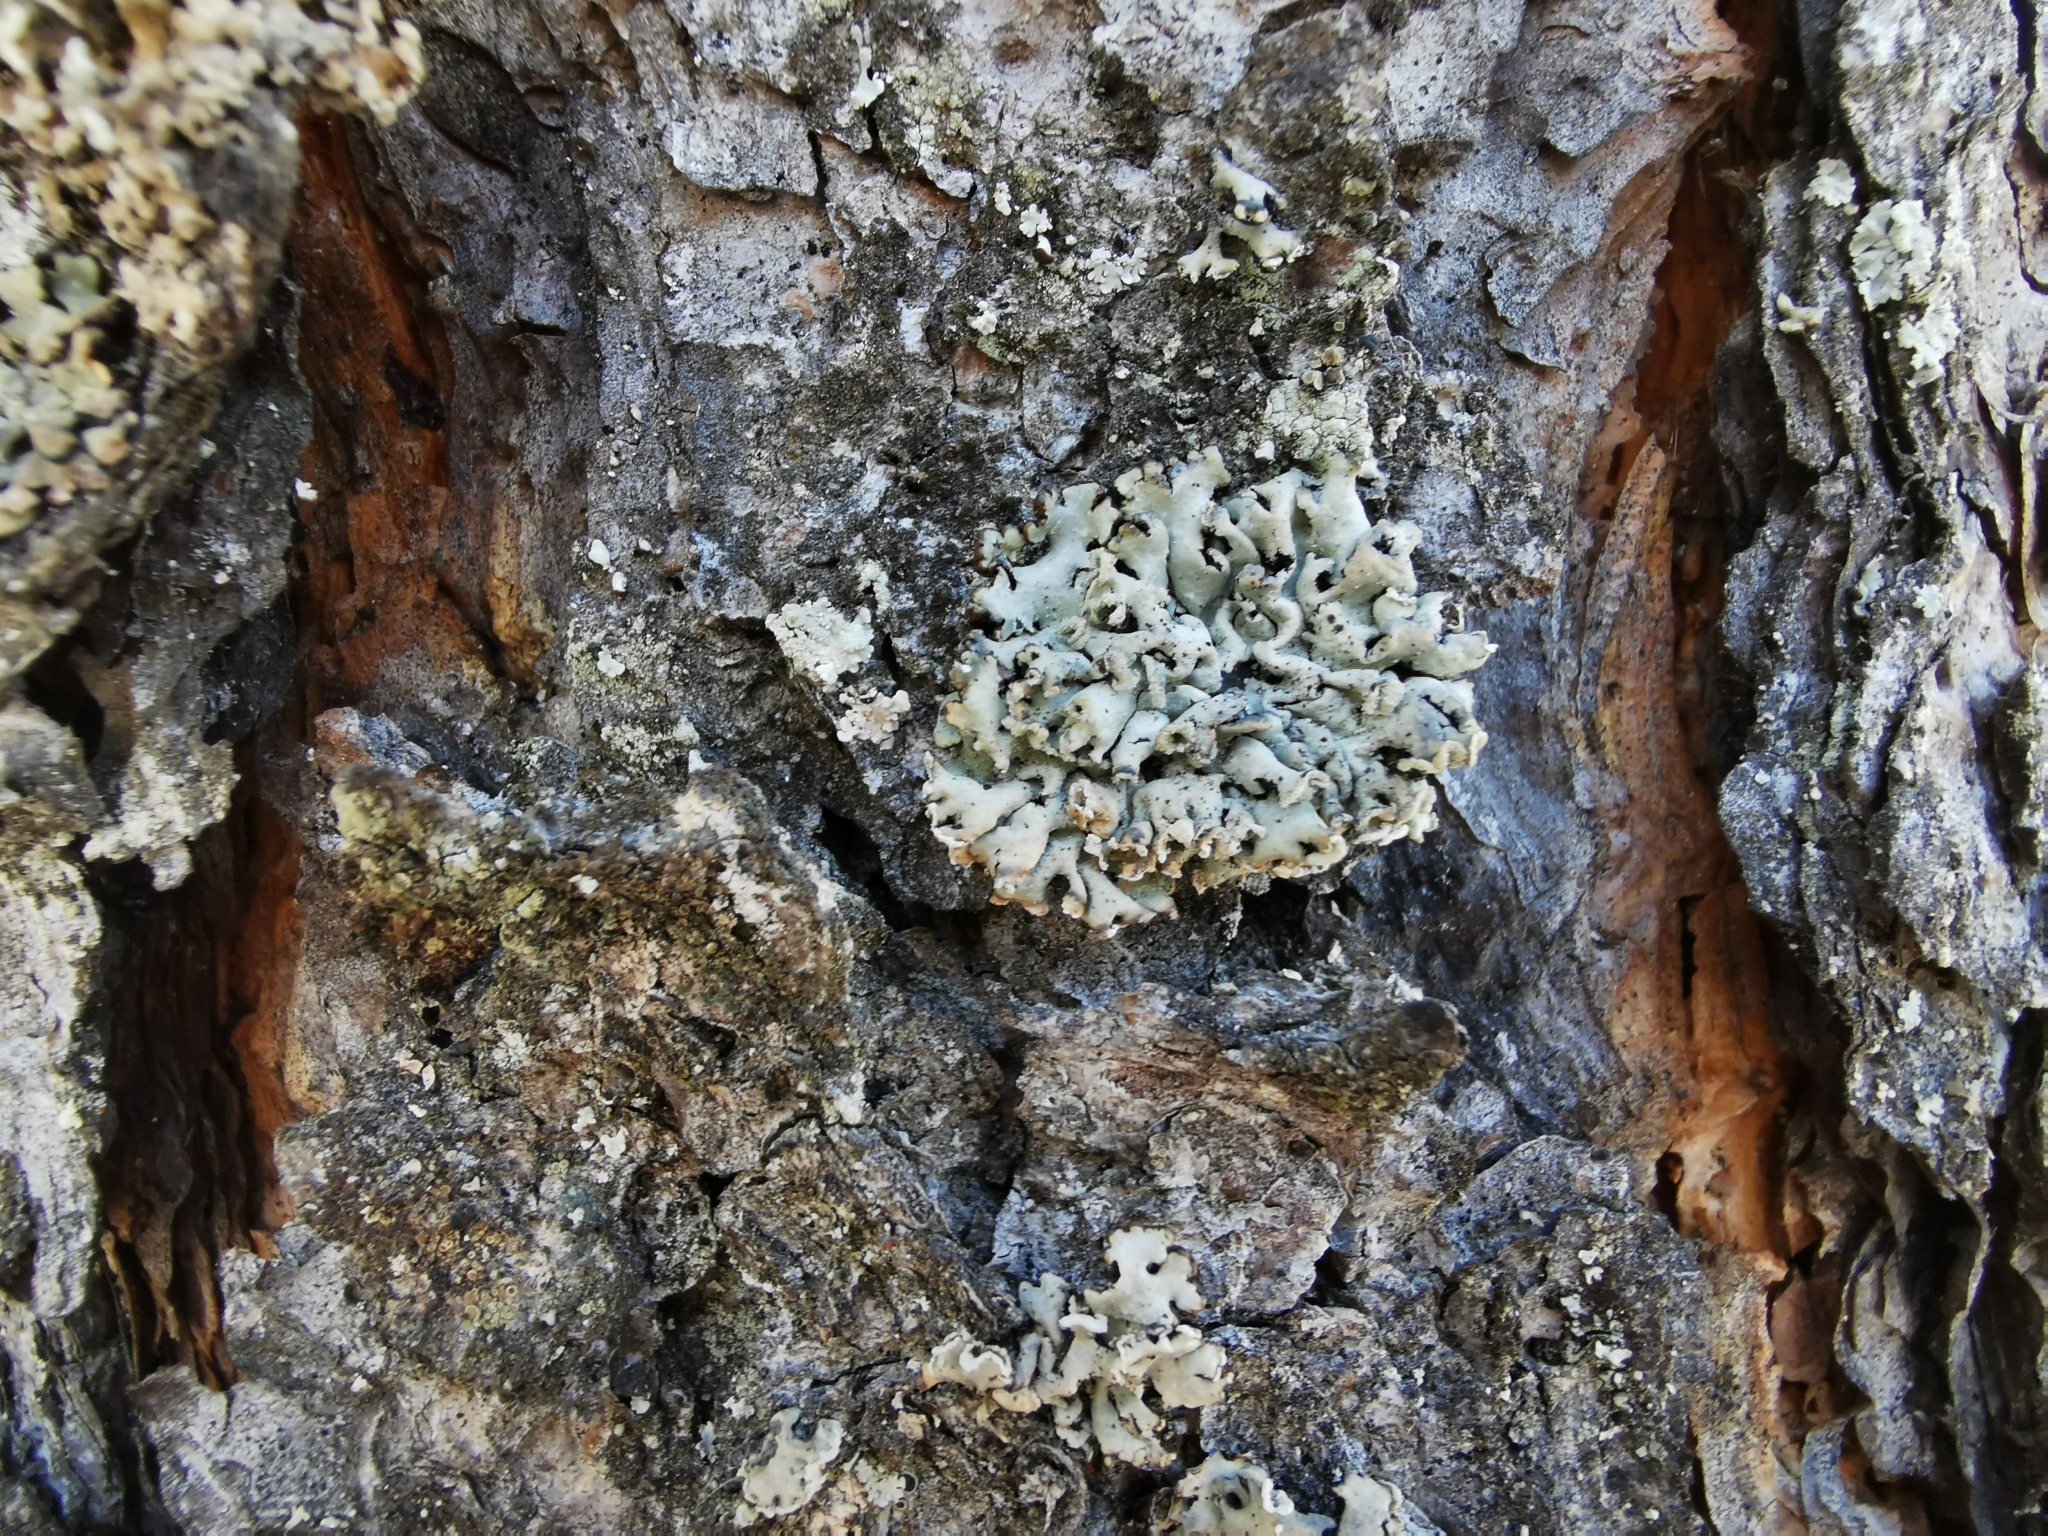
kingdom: Fungi
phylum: Ascomycota
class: Lecanoromycetes
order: Lecanorales
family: Parmeliaceae
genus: Hypogymnia
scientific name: Hypogymnia physodes
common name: Dark crottle
